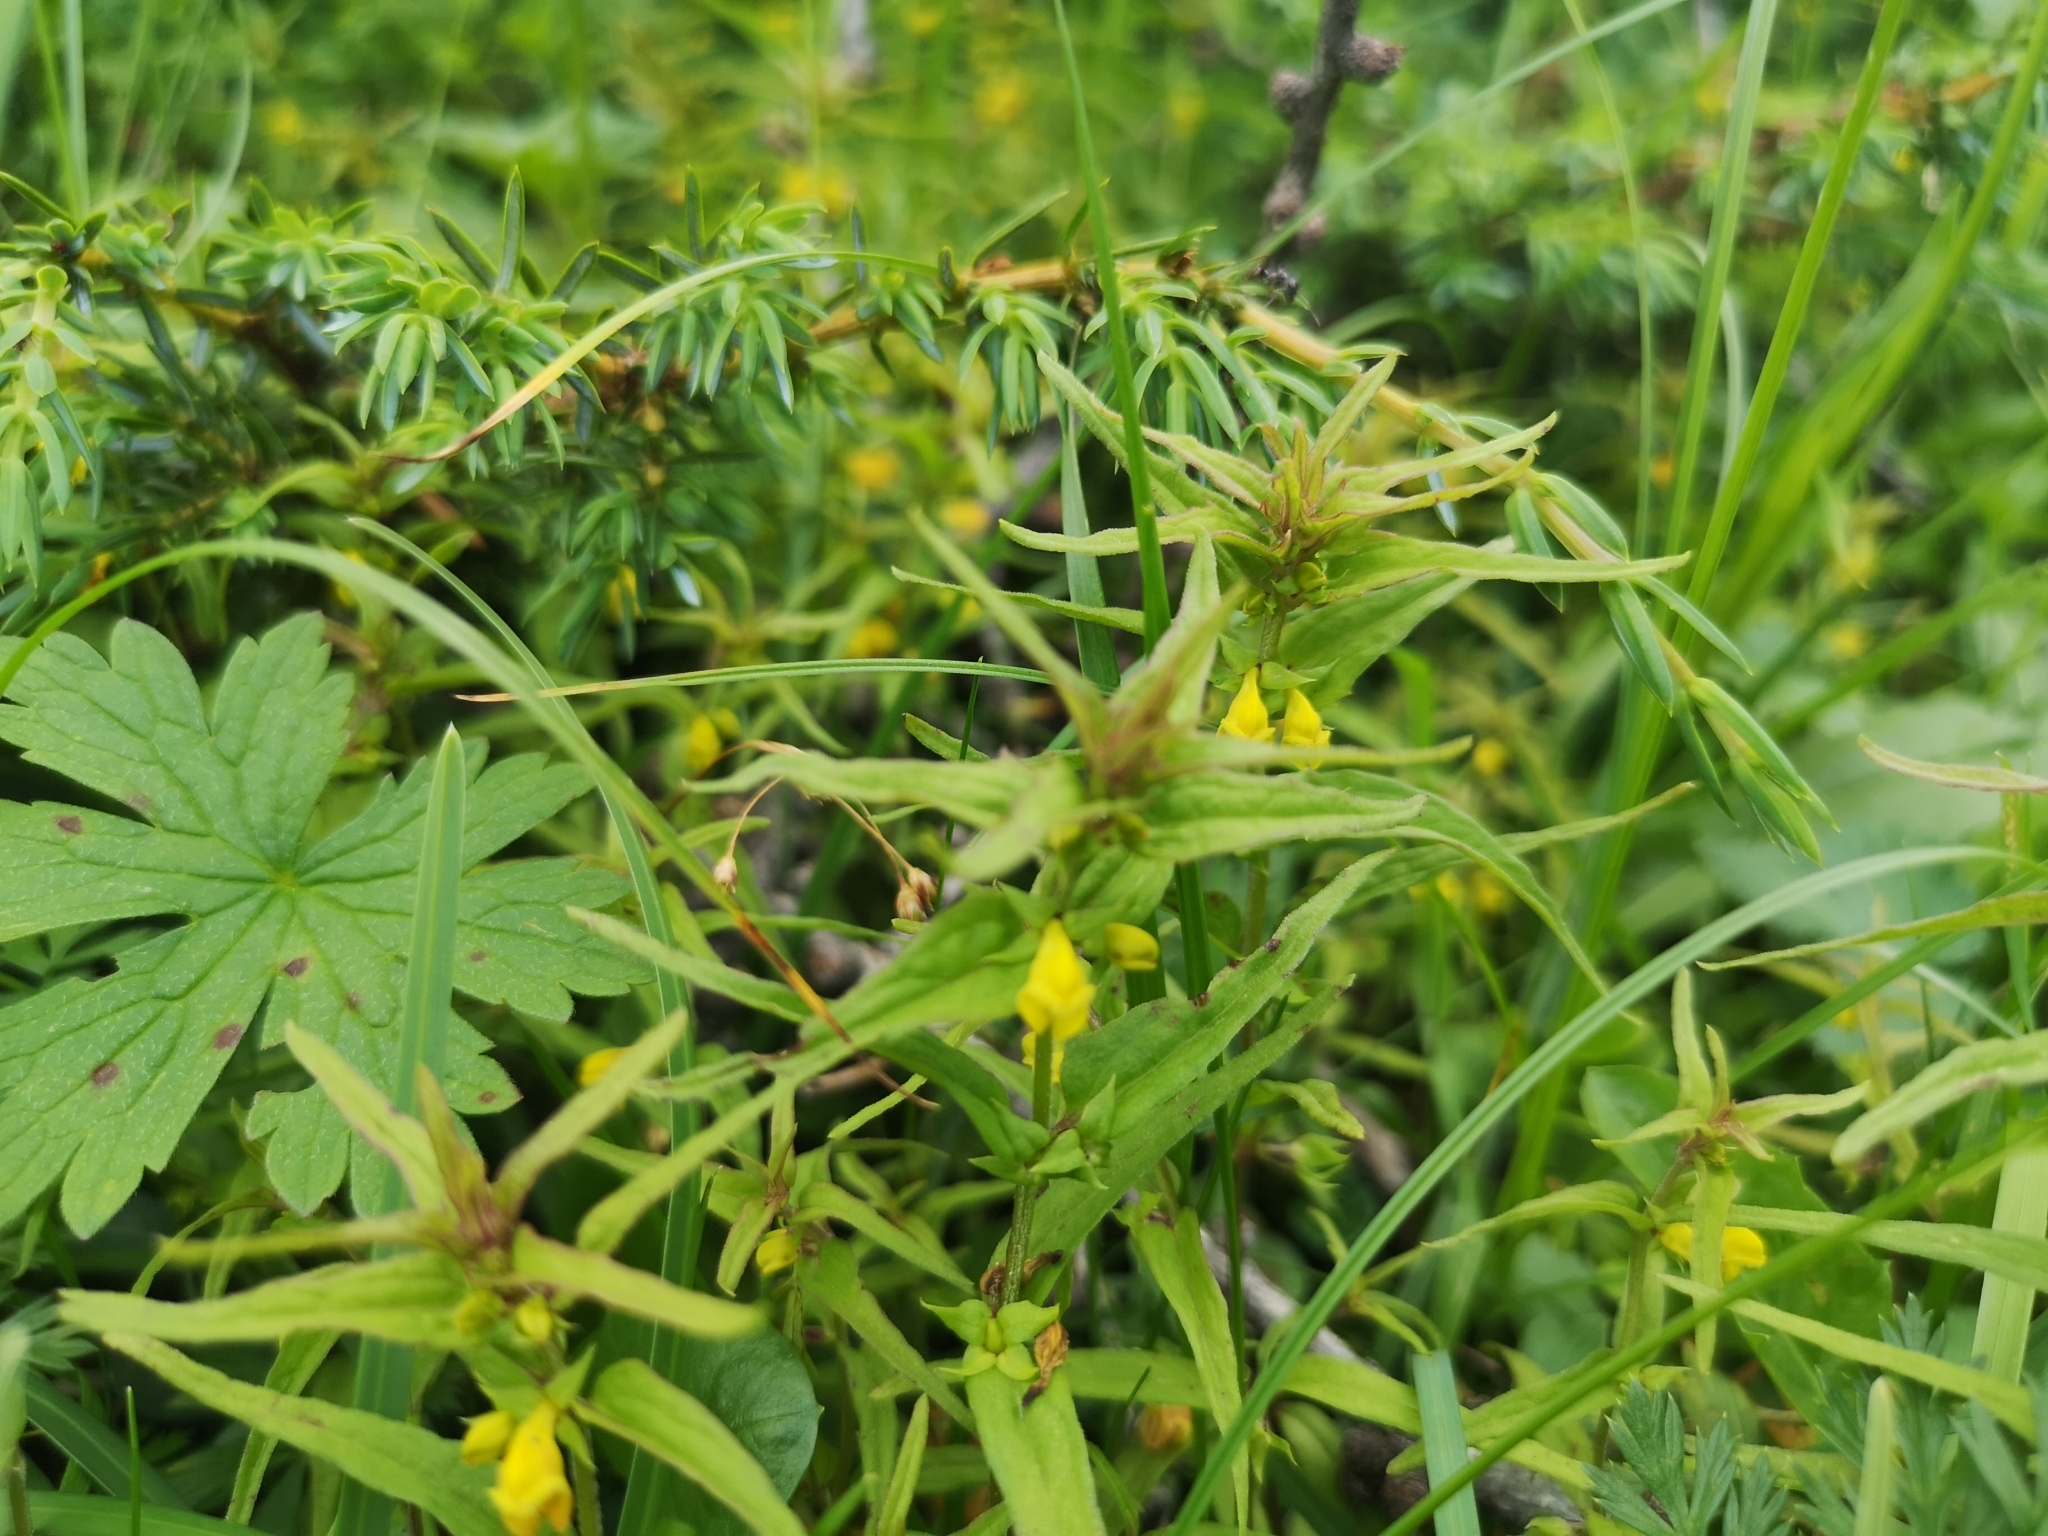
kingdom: Plantae
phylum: Tracheophyta
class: Magnoliopsida
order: Lamiales
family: Orobanchaceae
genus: Melampyrum
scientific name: Melampyrum sylvaticum
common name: Small cow-wheat
